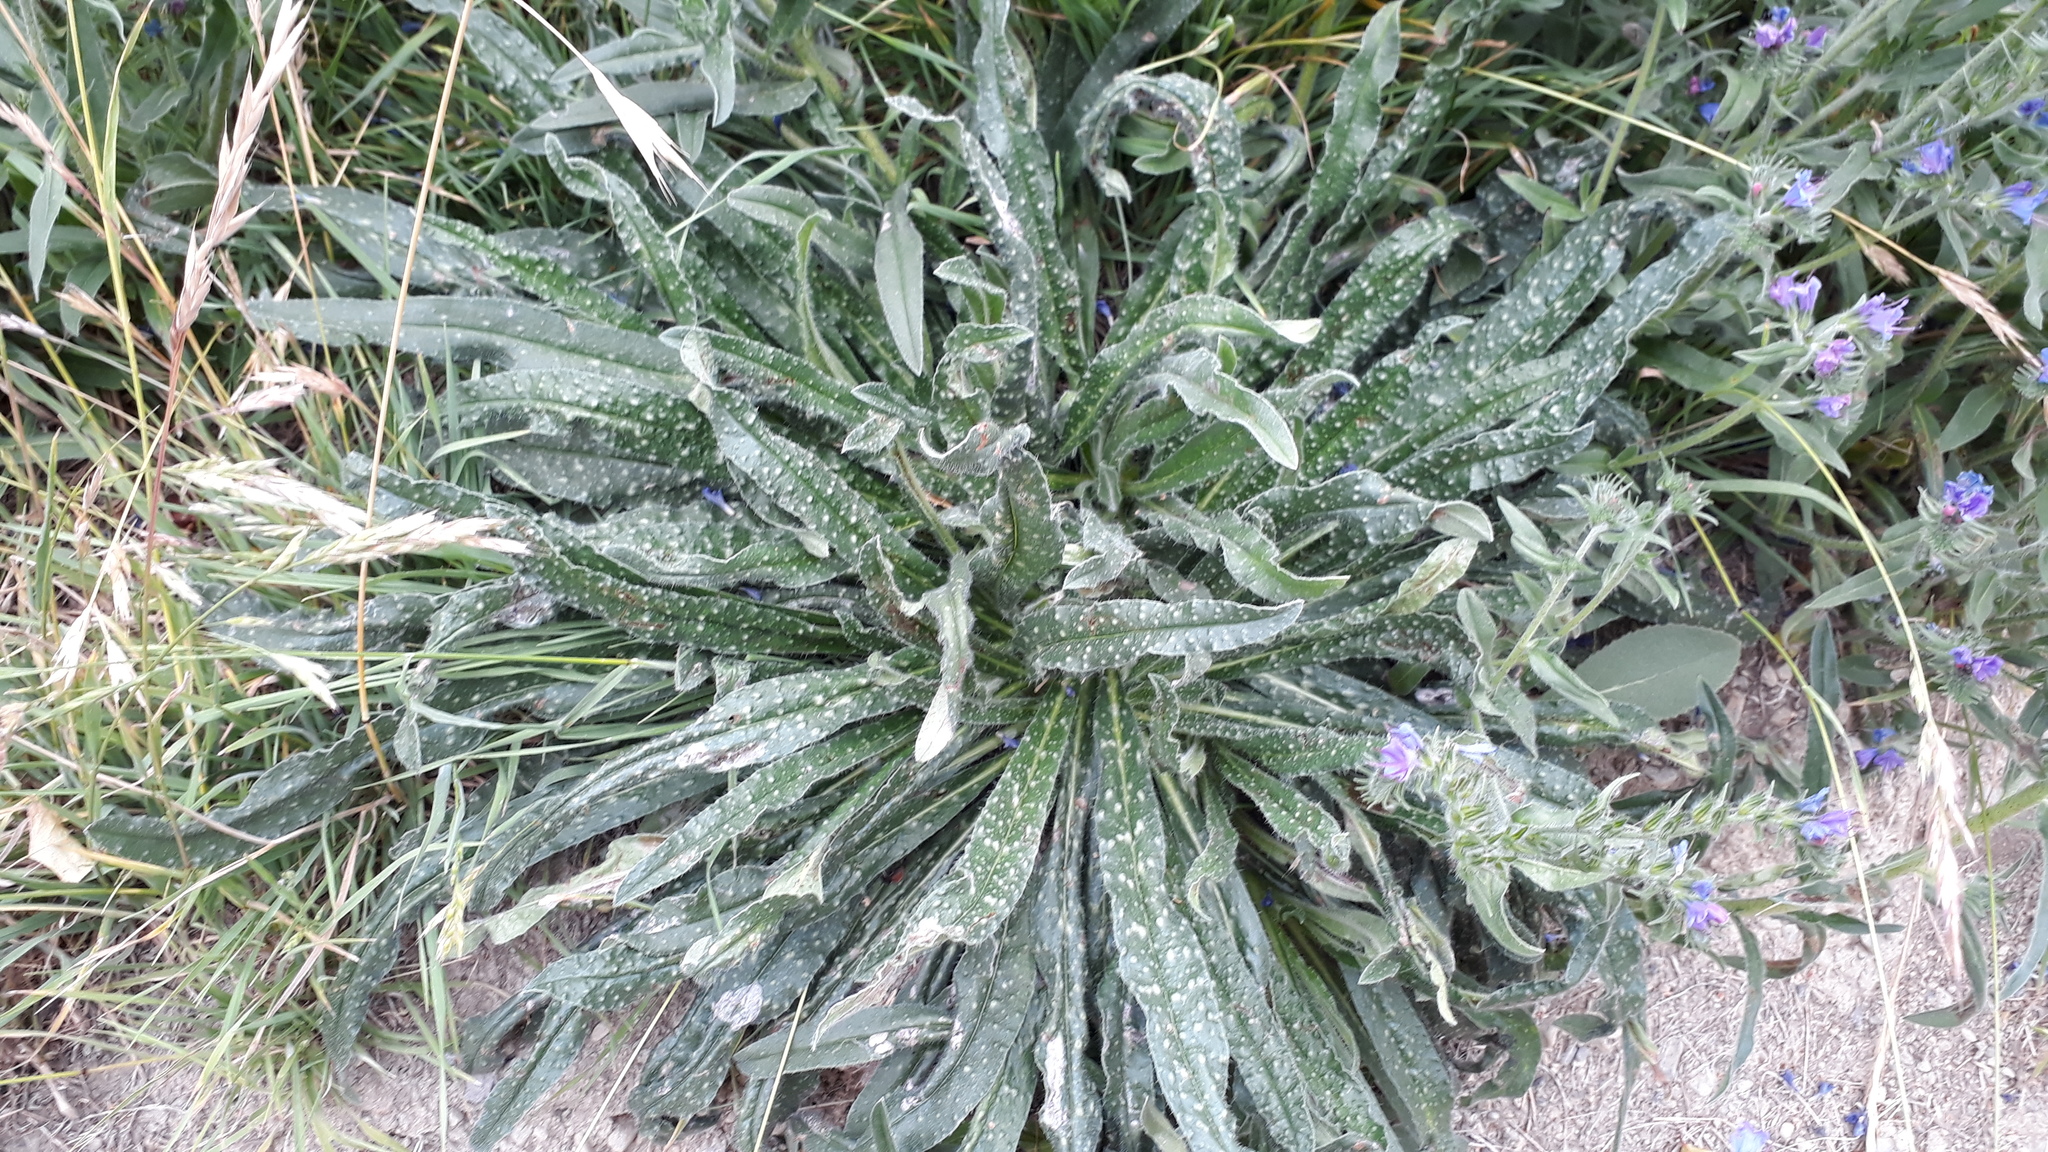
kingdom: Plantae
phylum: Tracheophyta
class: Magnoliopsida
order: Boraginales
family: Boraginaceae
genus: Echium
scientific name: Echium vulgare
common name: Common viper's bugloss
